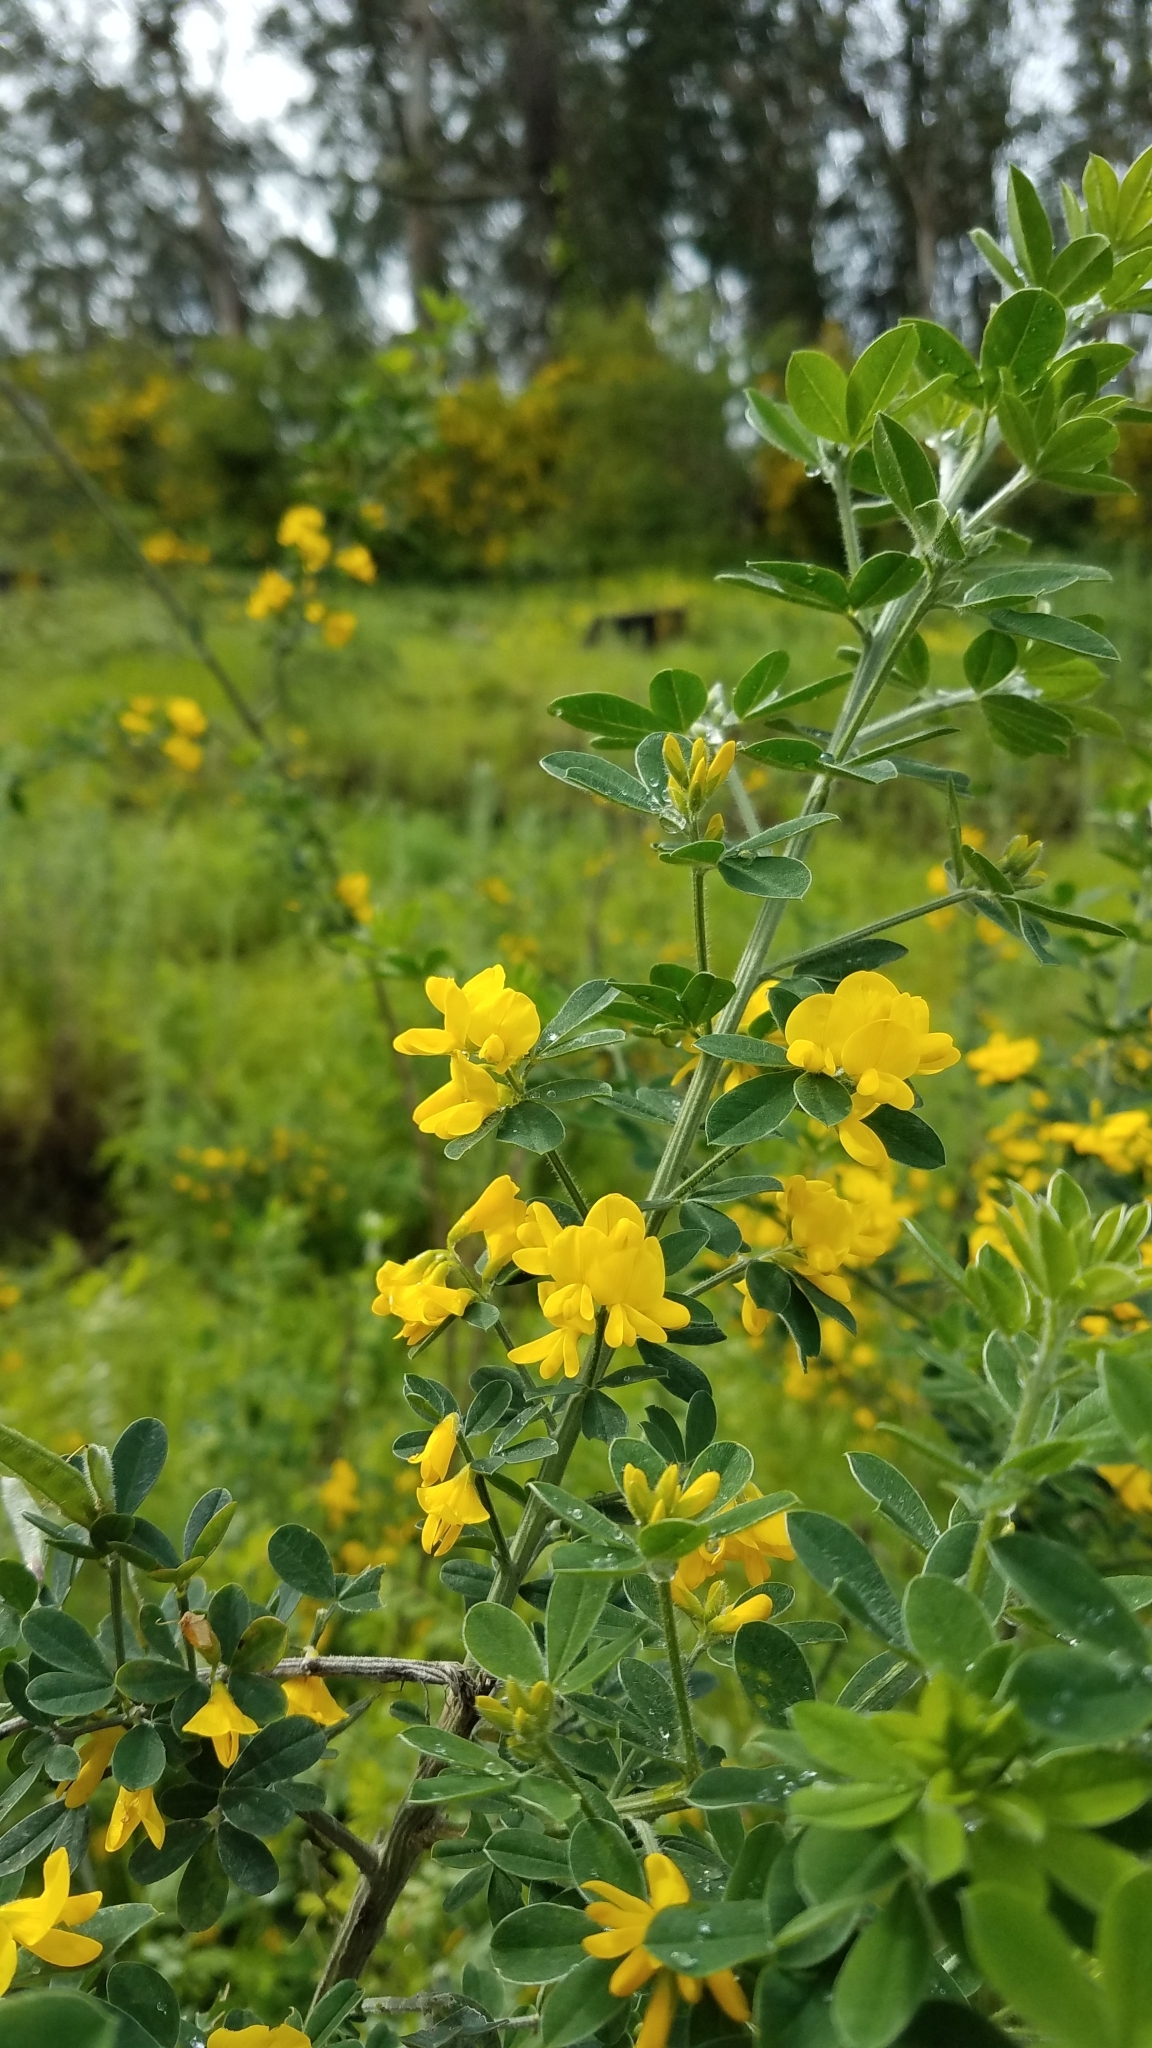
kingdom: Plantae
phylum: Tracheophyta
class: Magnoliopsida
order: Fabales
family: Fabaceae
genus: Genista
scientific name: Genista monspessulana
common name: Montpellier broom
